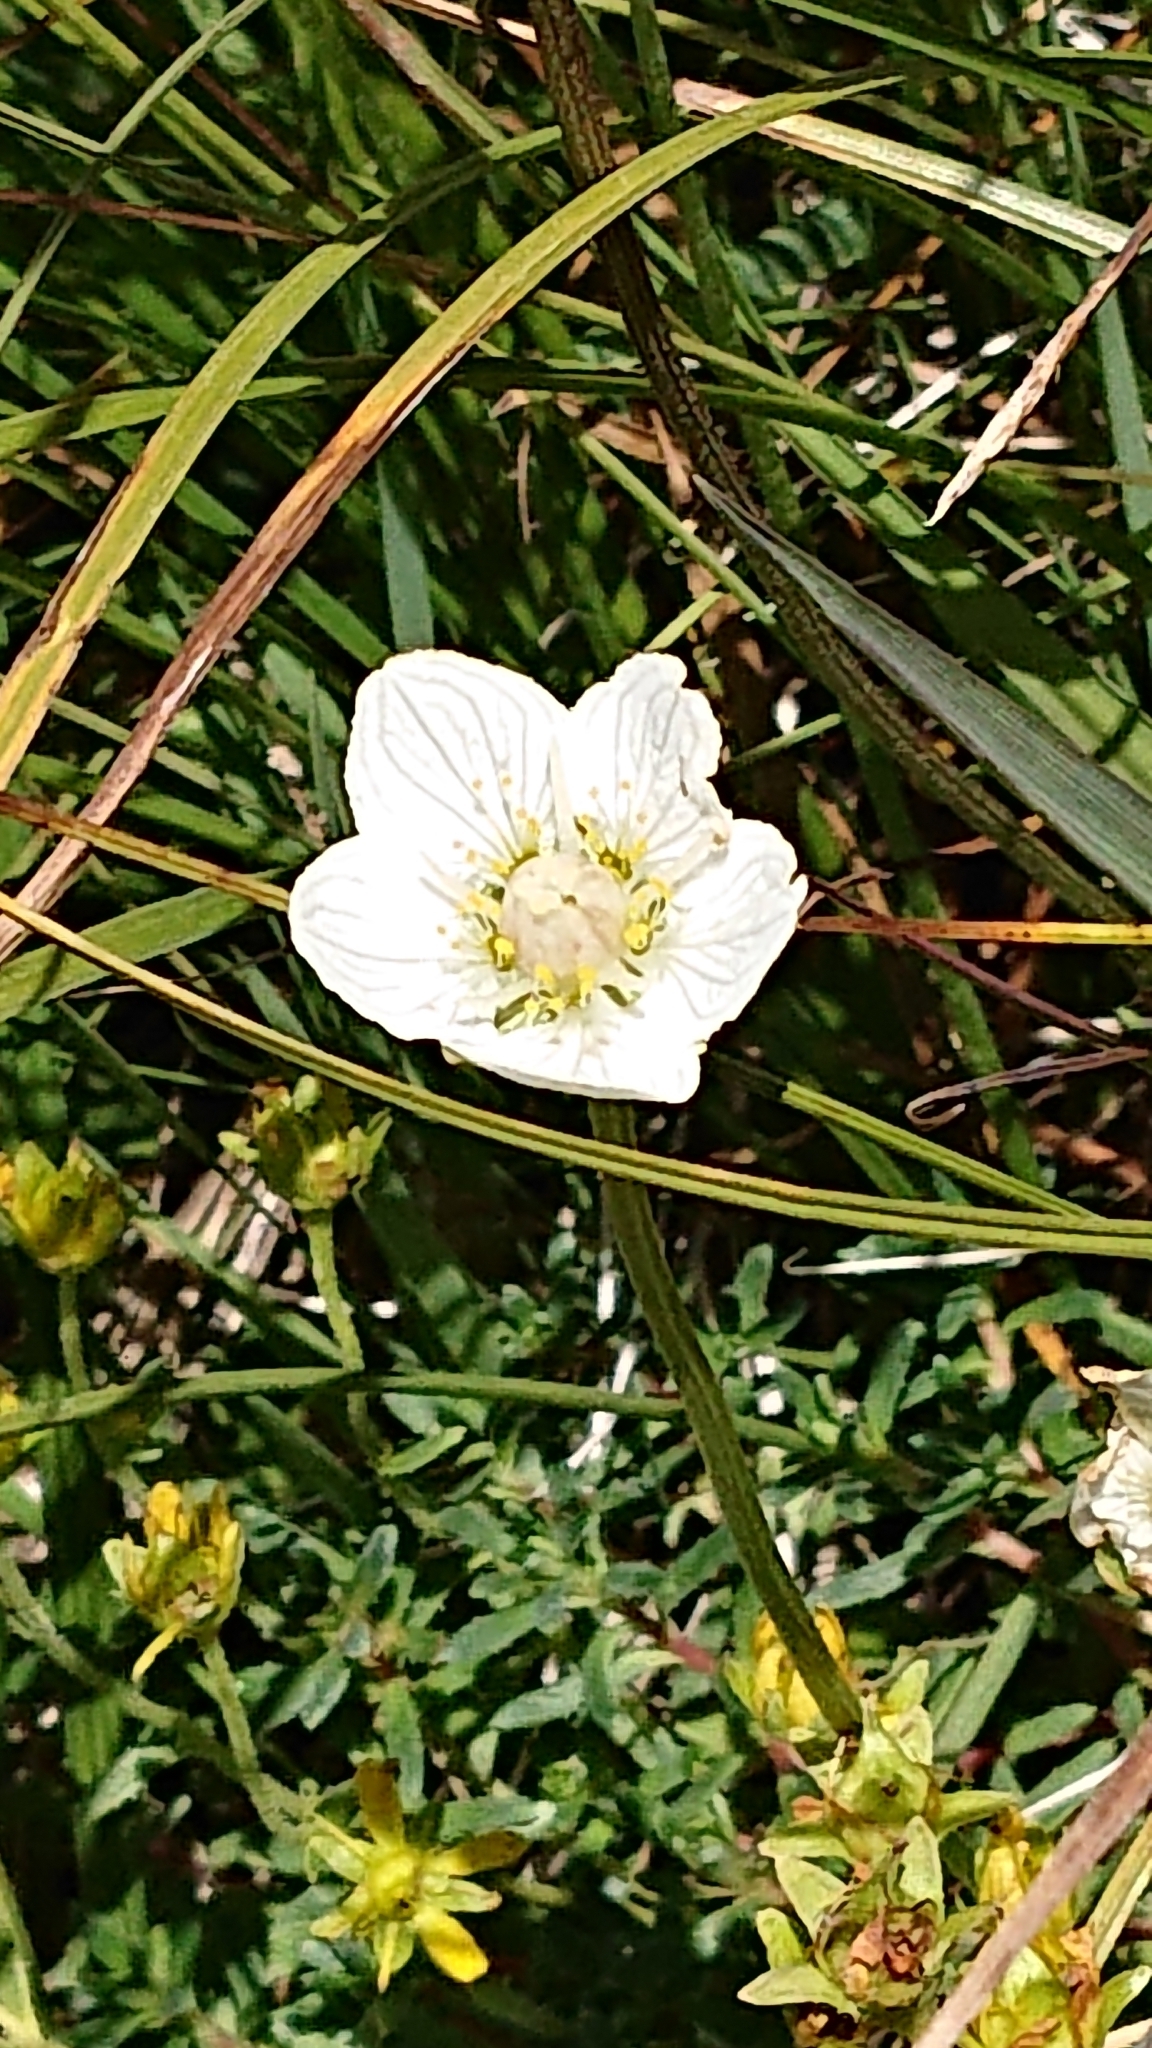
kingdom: Plantae
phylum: Tracheophyta
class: Magnoliopsida
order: Celastrales
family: Parnassiaceae
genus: Parnassia
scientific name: Parnassia palustris
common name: Grass-of-parnassus
